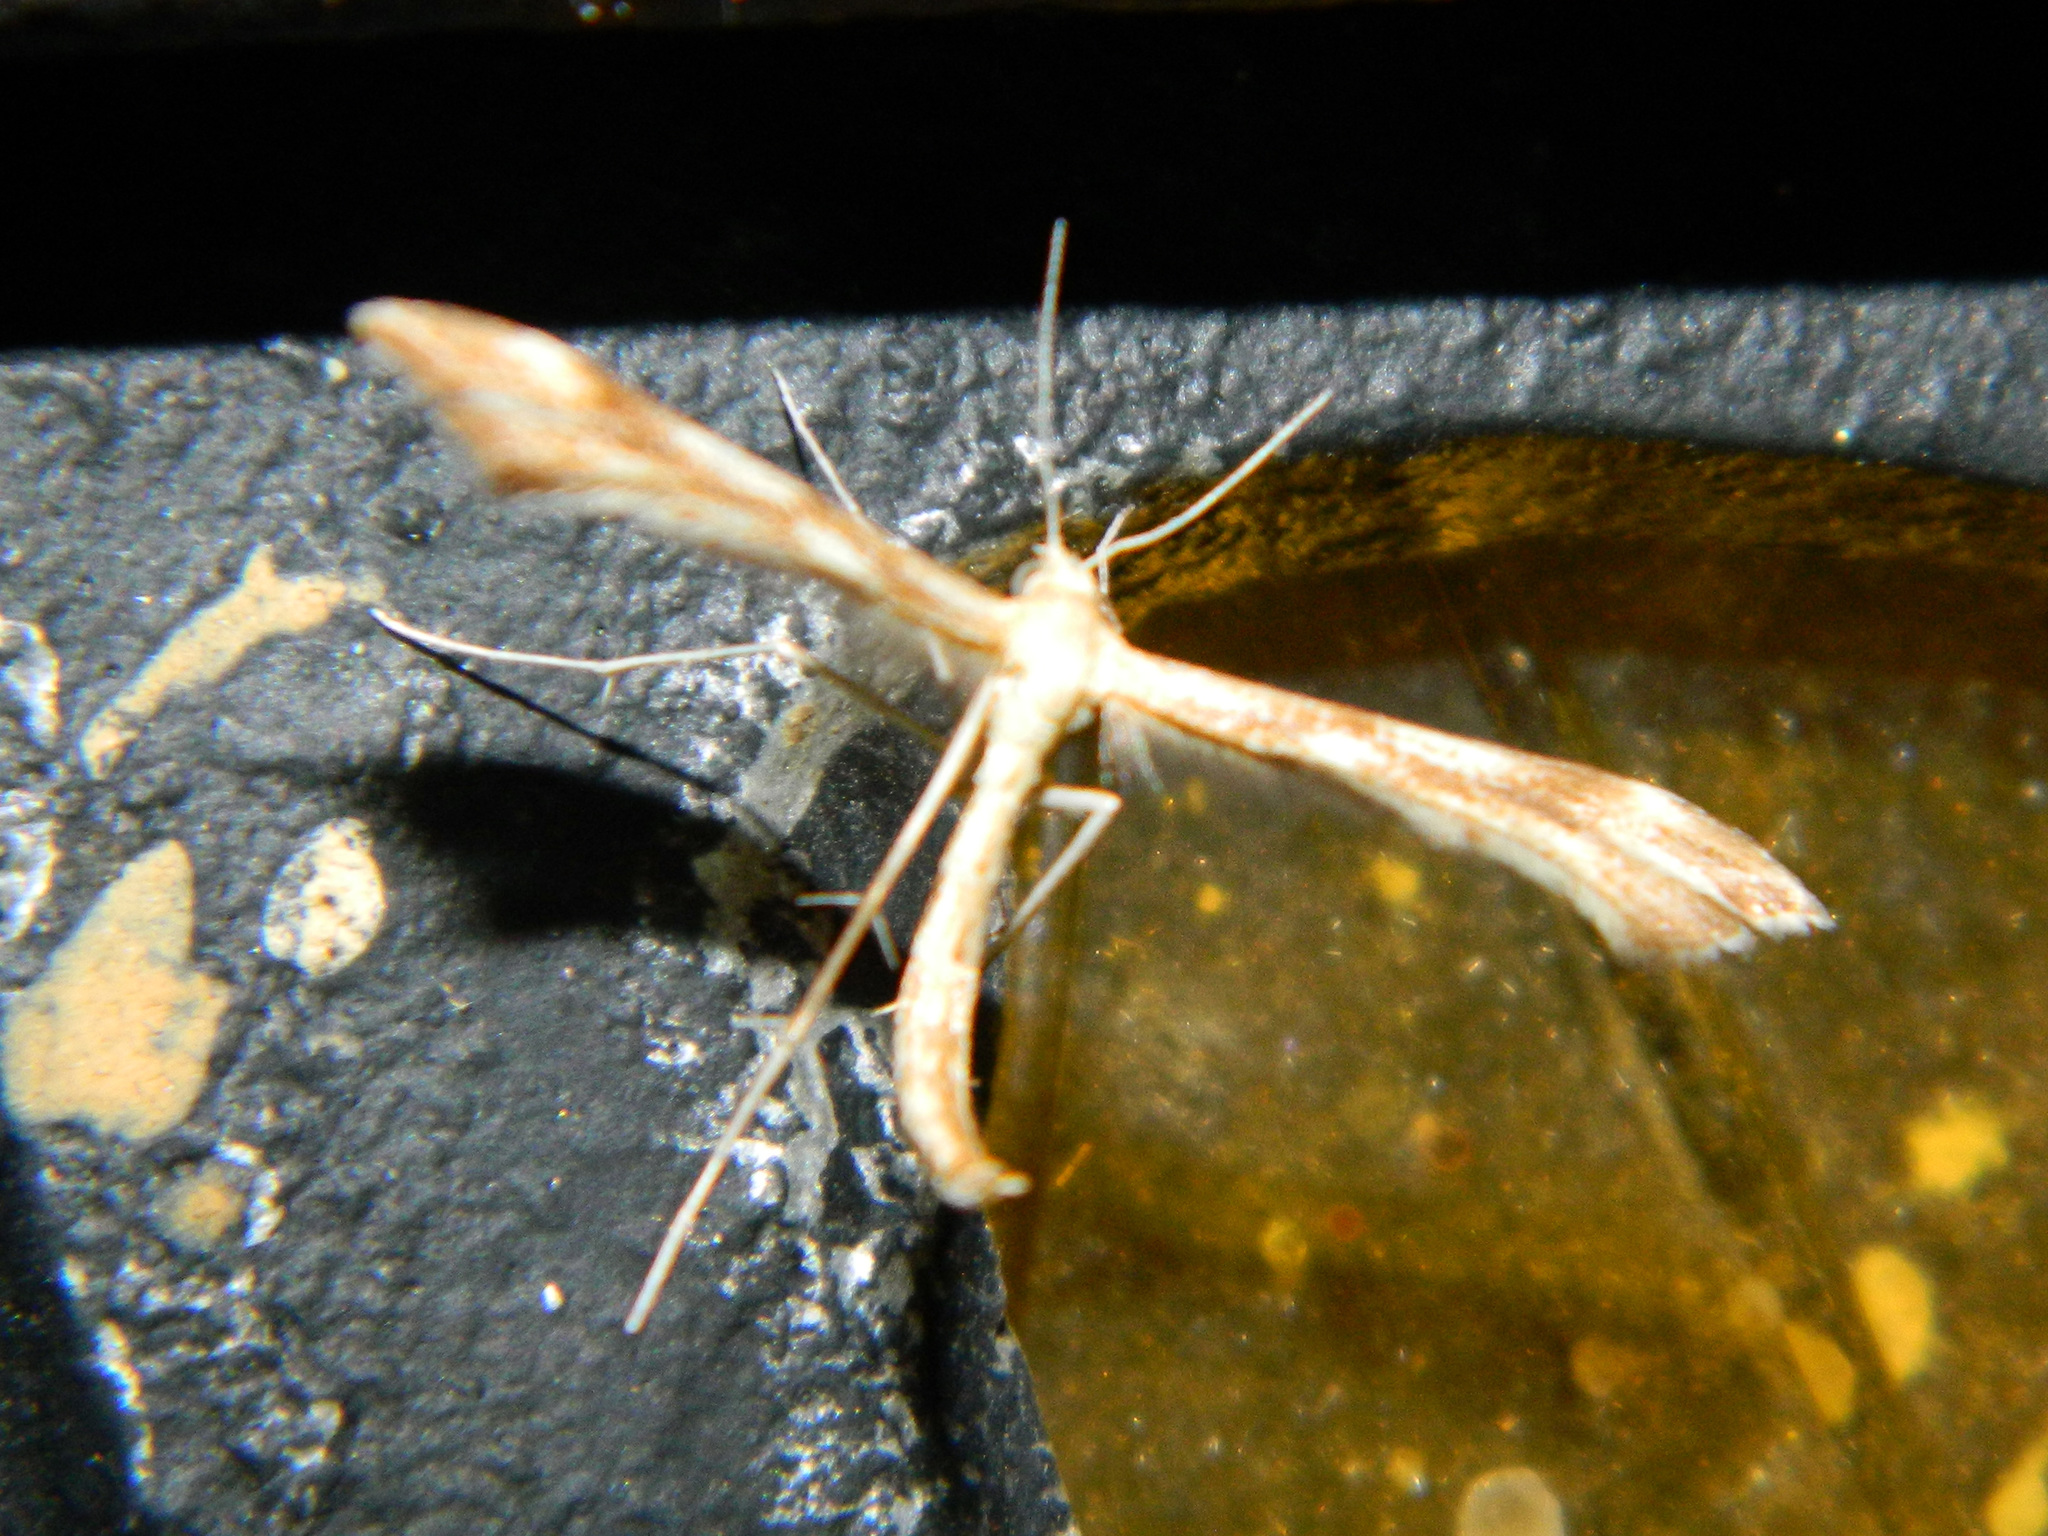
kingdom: Animalia
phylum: Arthropoda
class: Insecta
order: Lepidoptera
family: Pterophoridae
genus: Gillmeria
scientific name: Gillmeria pallidactyla
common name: Yarrow plume
